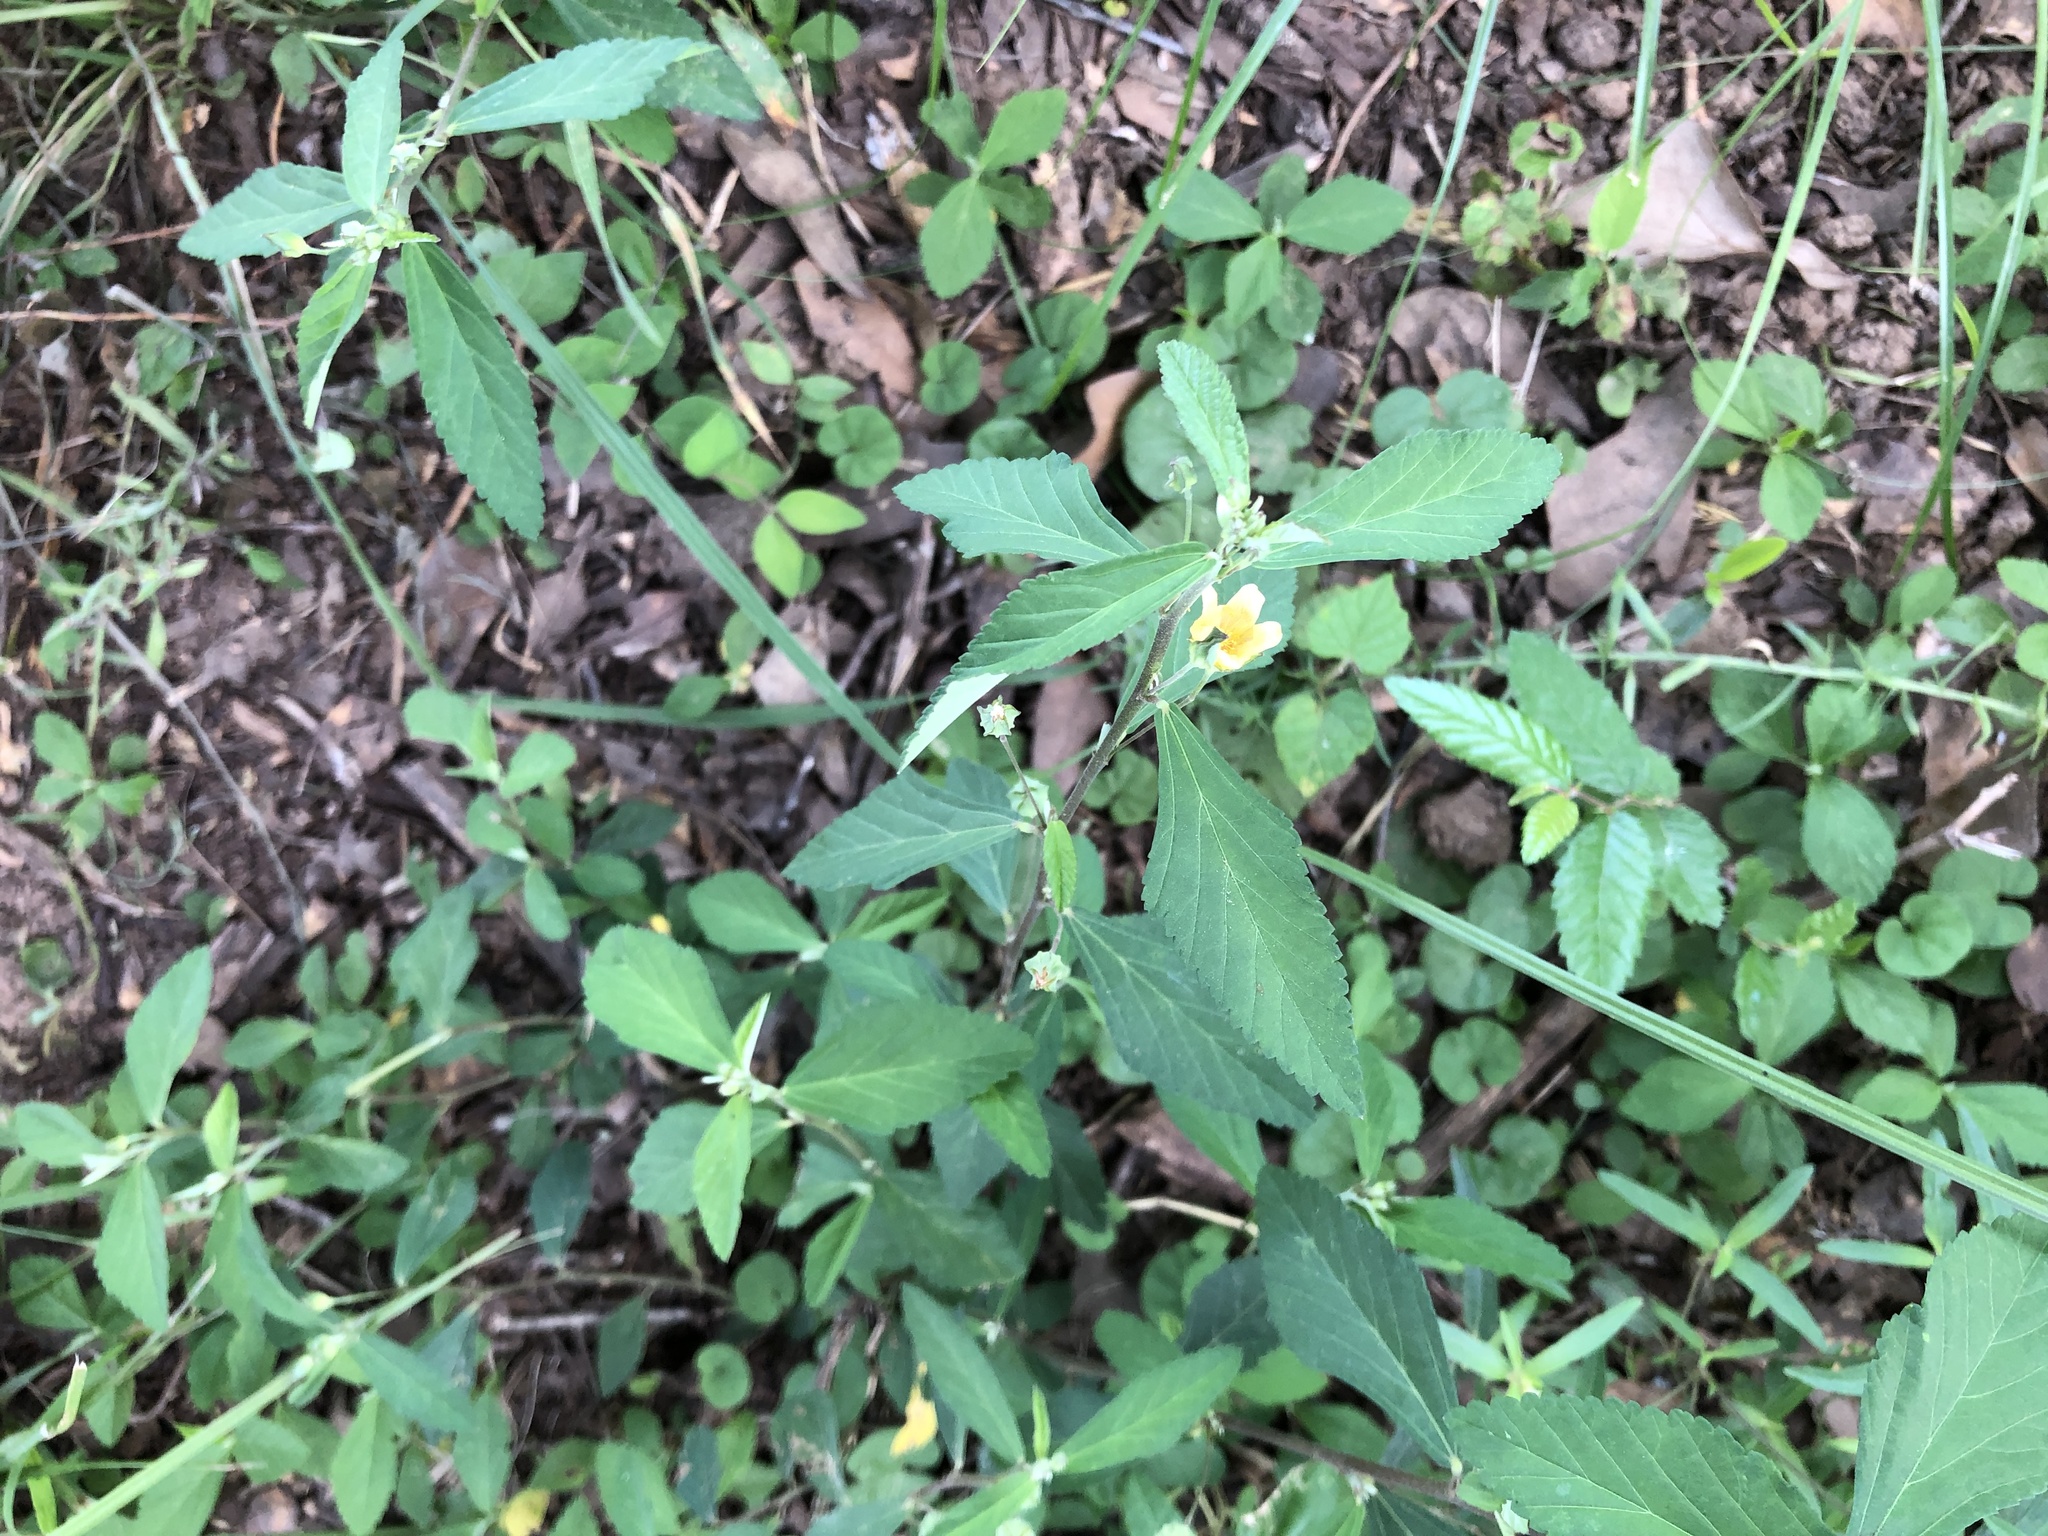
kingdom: Plantae
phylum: Tracheophyta
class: Magnoliopsida
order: Malvales
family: Malvaceae
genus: Sida
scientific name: Sida rhombifolia
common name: Queensland-hemp
